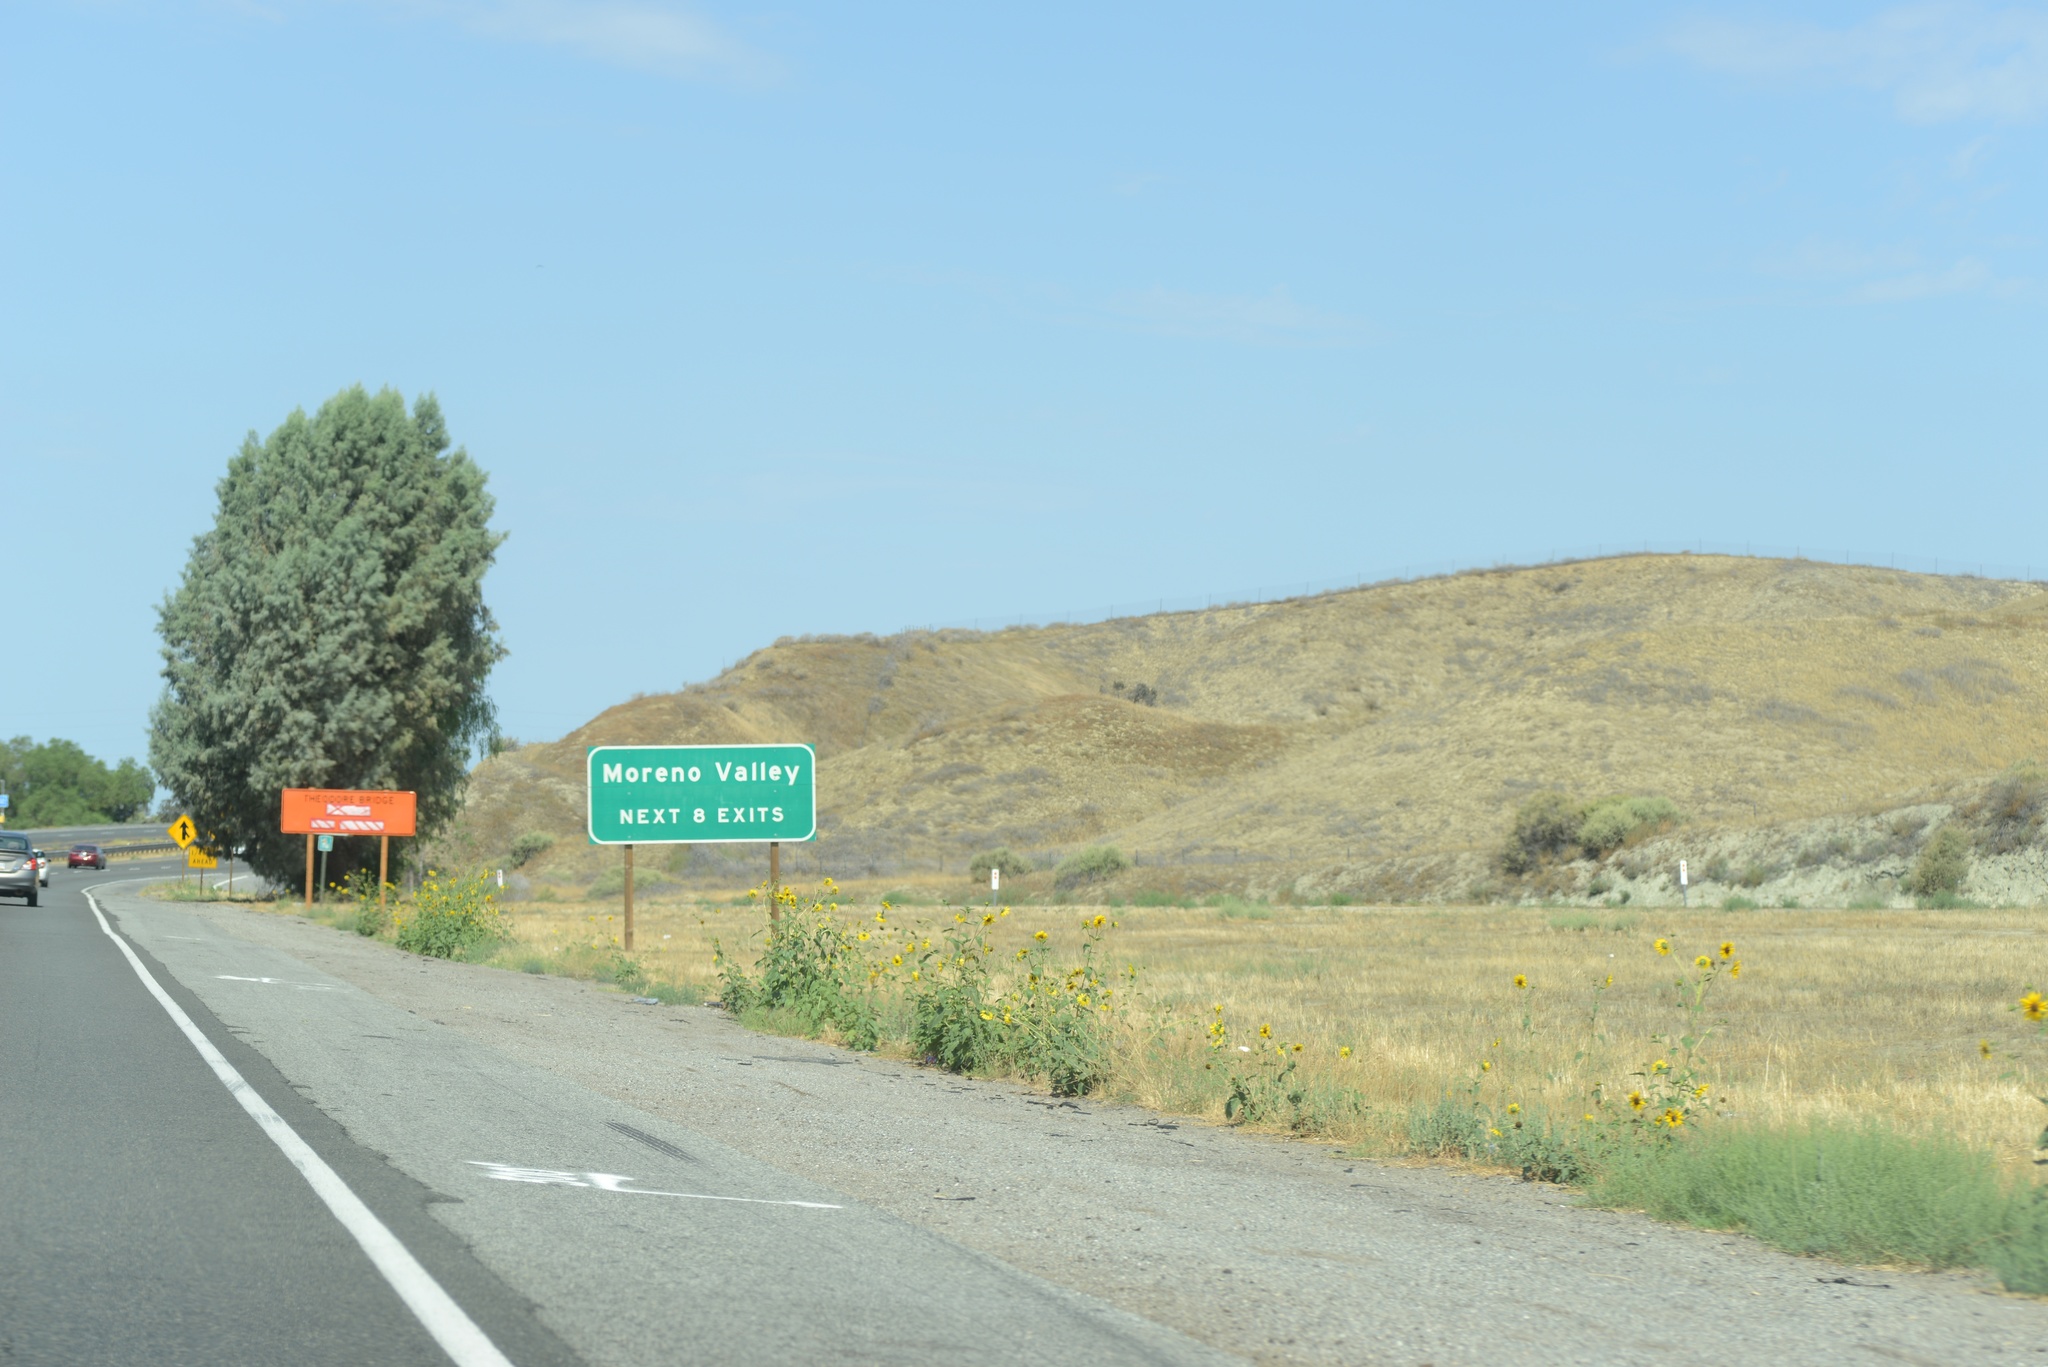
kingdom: Plantae
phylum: Tracheophyta
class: Magnoliopsida
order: Asterales
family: Asteraceae
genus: Helianthus
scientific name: Helianthus annuus
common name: Sunflower
